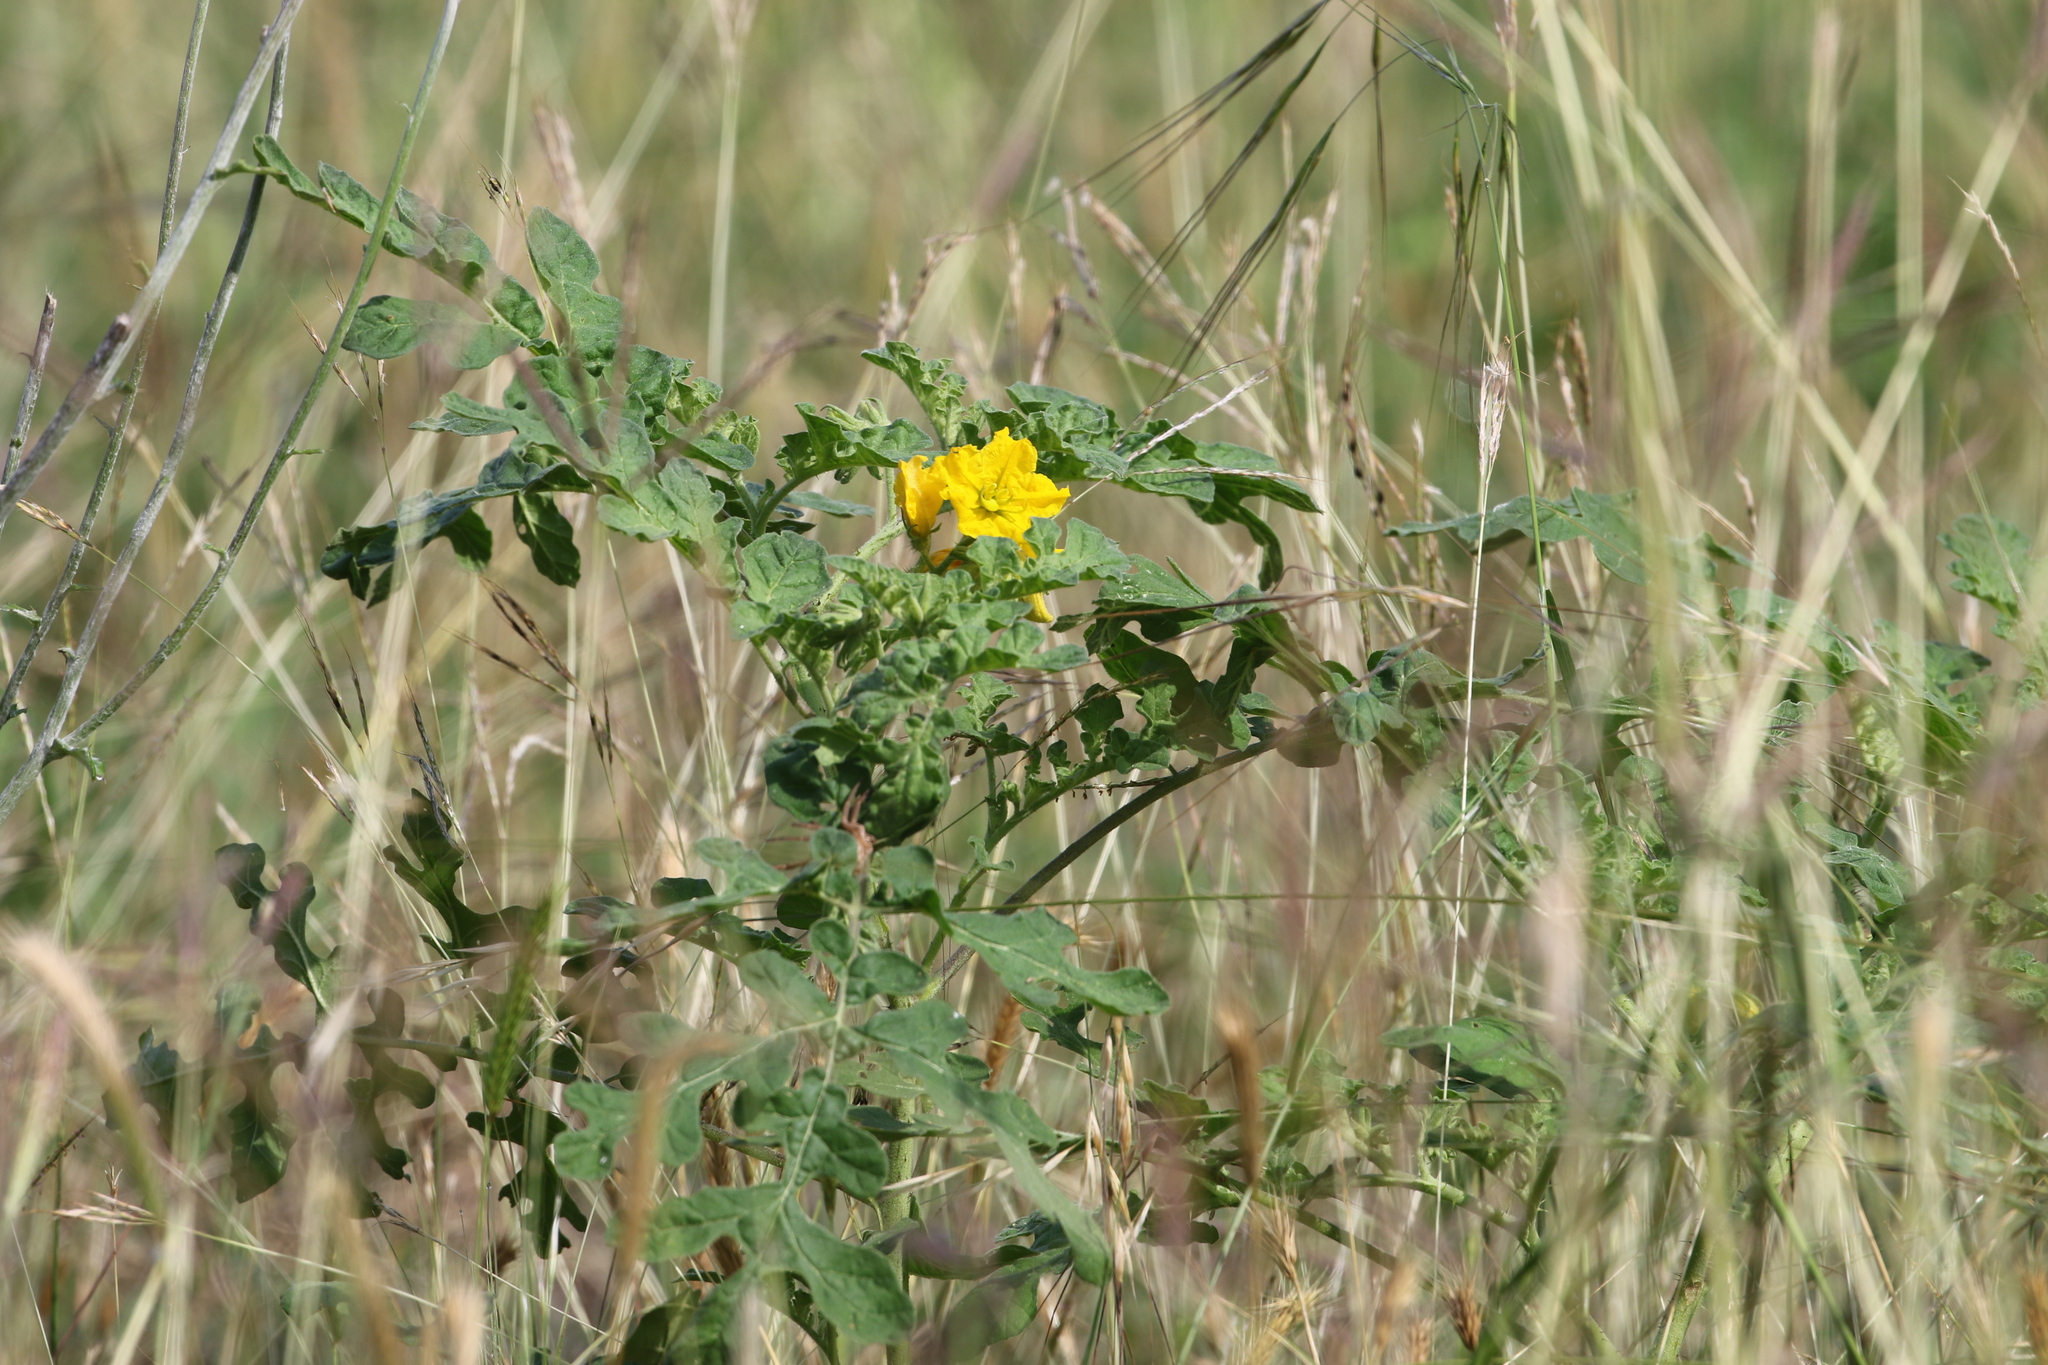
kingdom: Plantae
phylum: Tracheophyta
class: Magnoliopsida
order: Solanales
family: Solanaceae
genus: Solanum
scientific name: Solanum angustifolium
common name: Buffalobur nightshade
